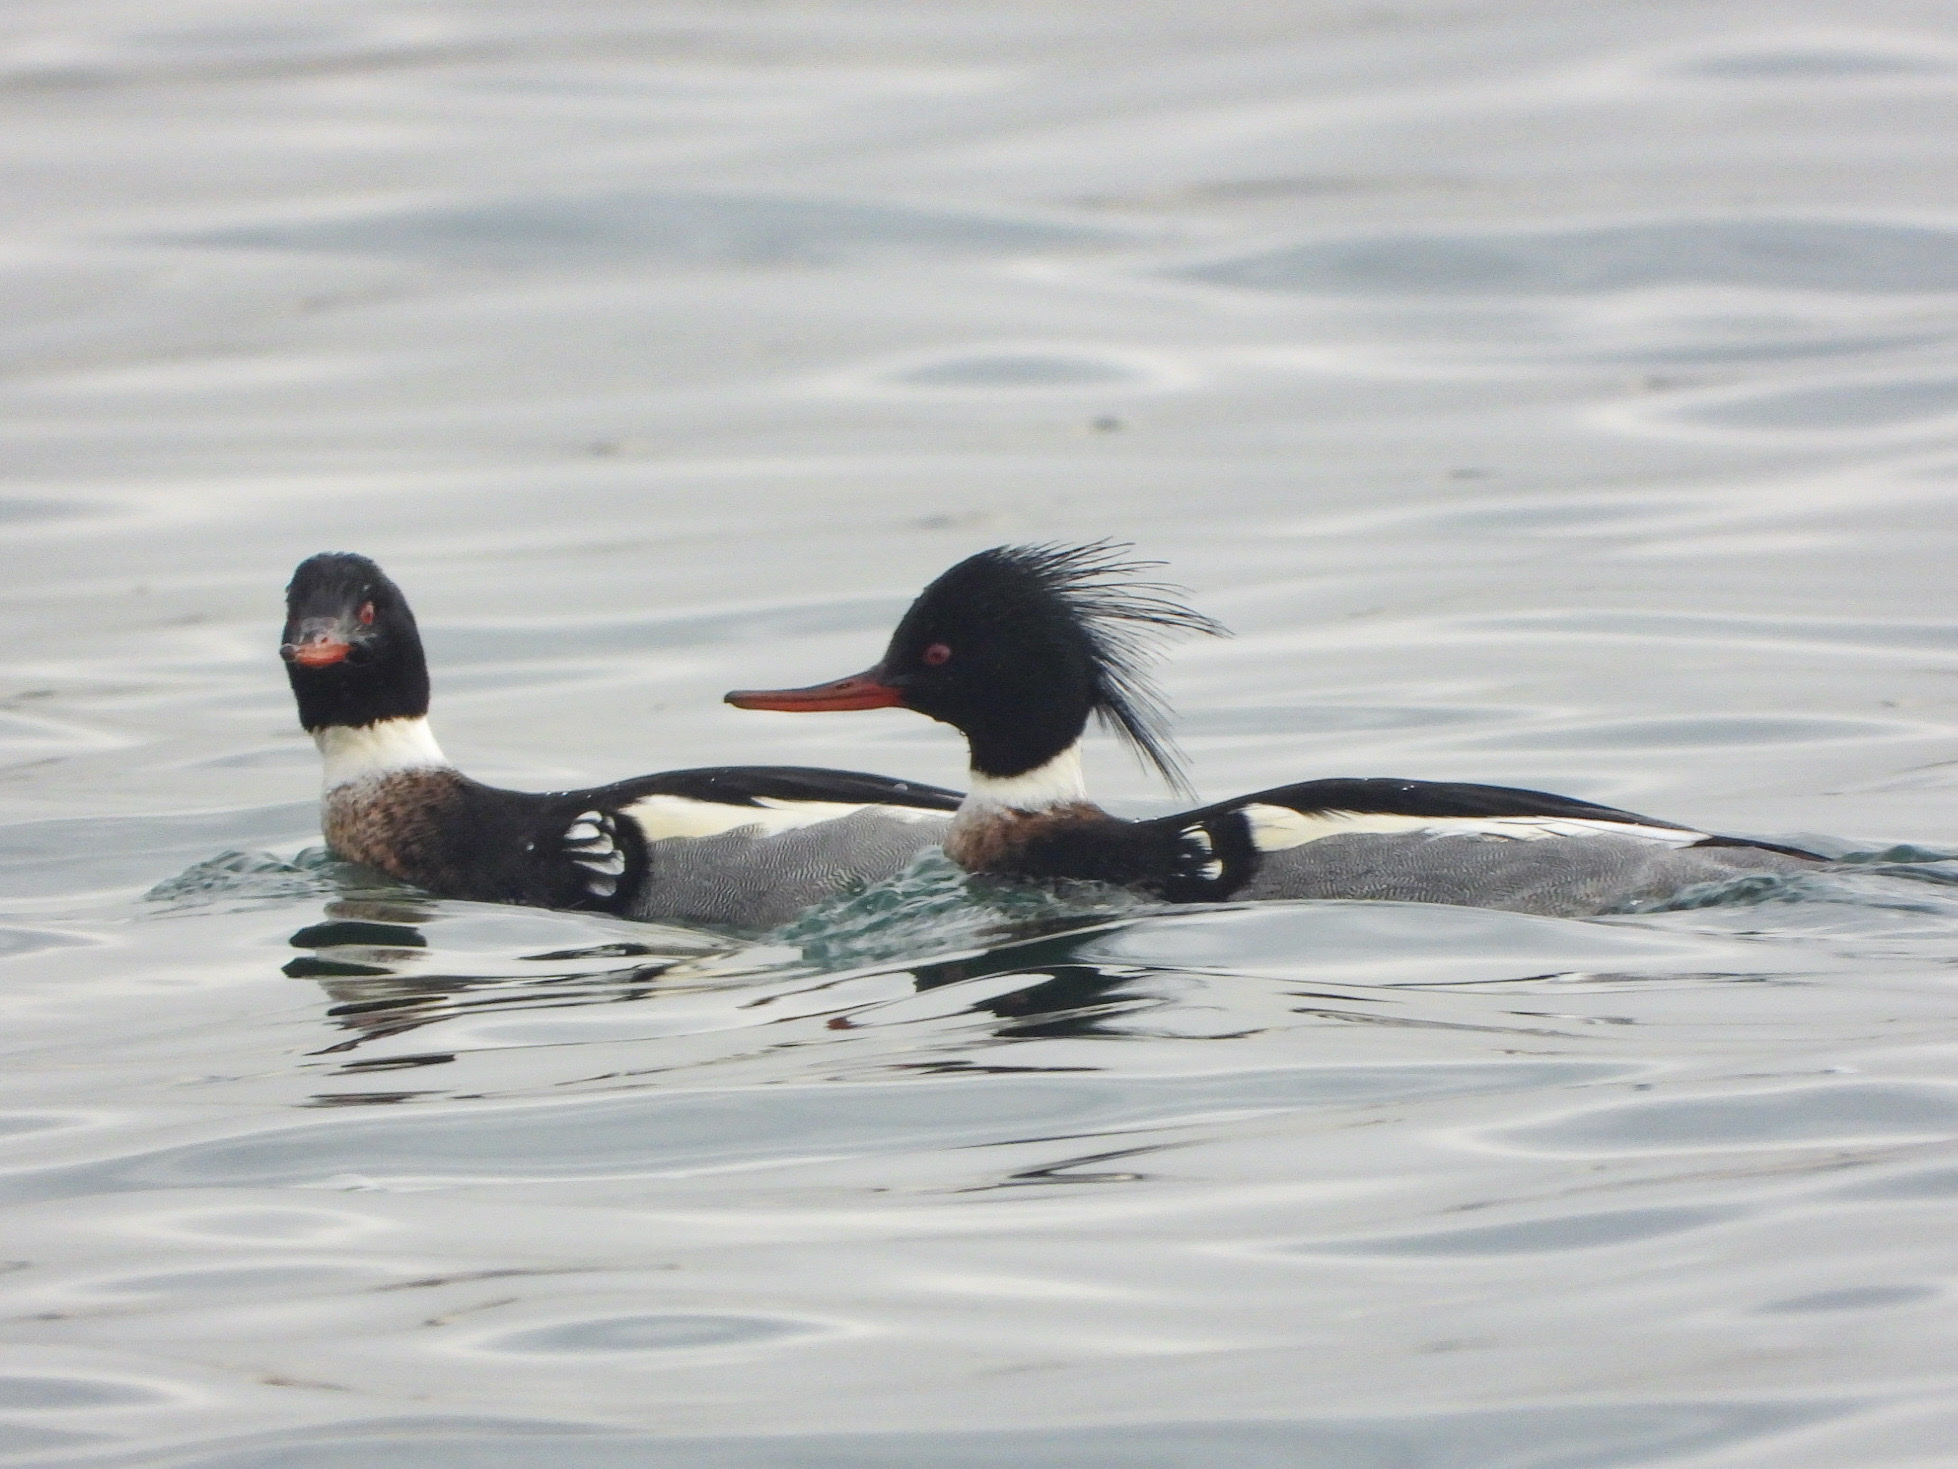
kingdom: Animalia
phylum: Chordata
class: Aves
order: Anseriformes
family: Anatidae
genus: Mergus
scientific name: Mergus serrator
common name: Red-breasted merganser
